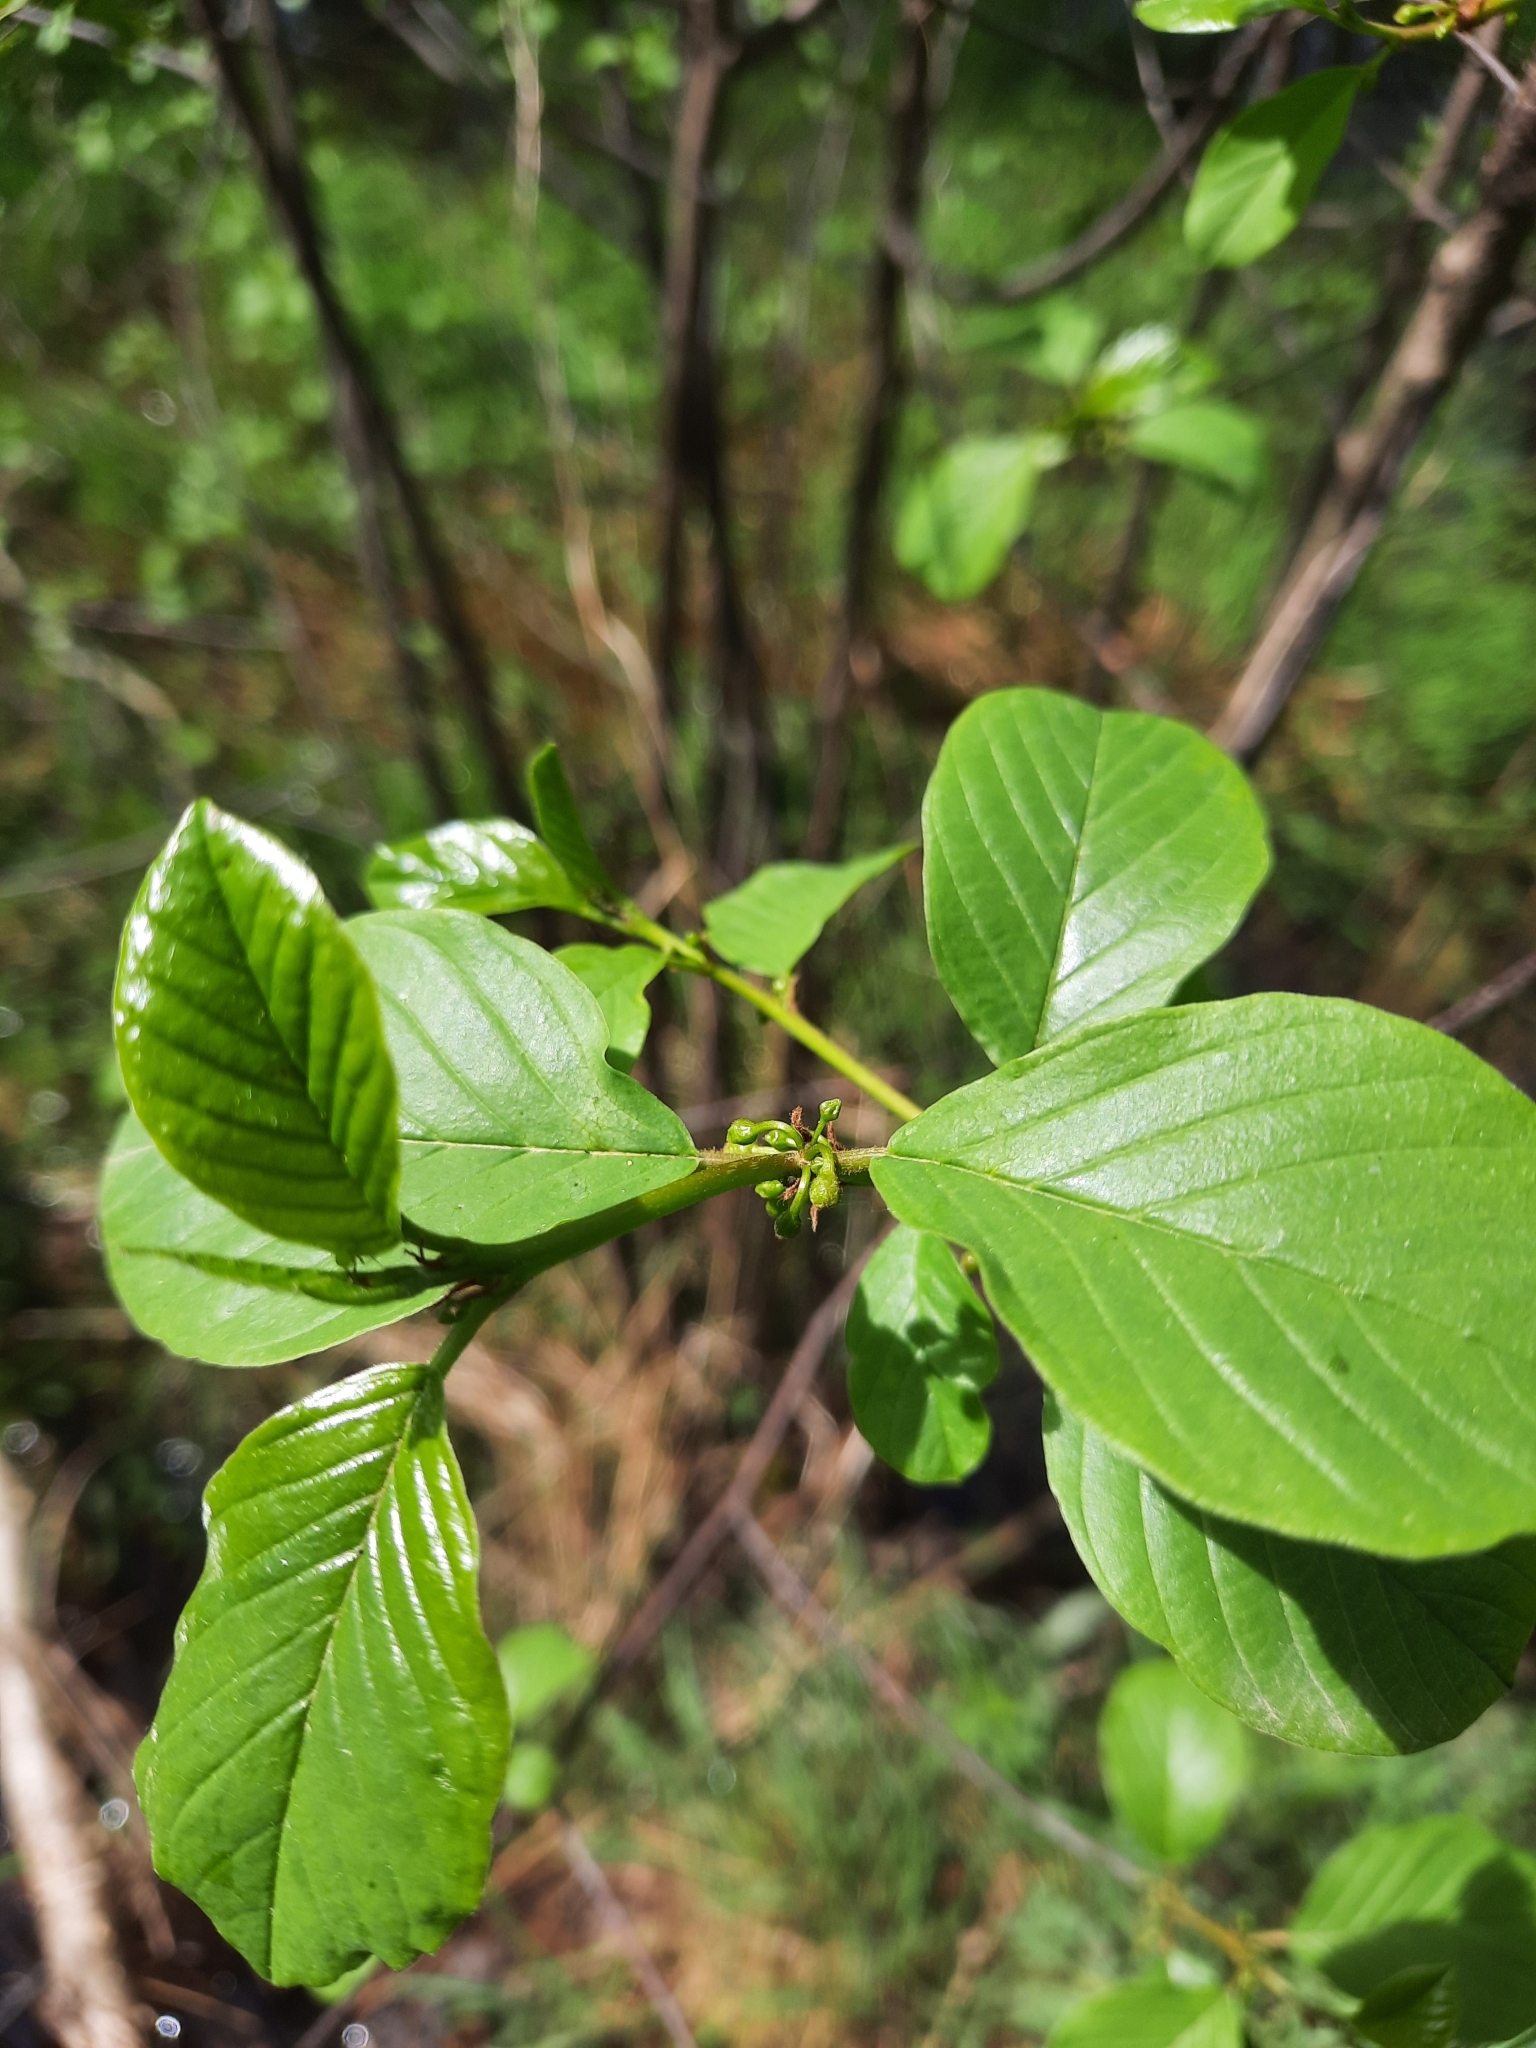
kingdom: Plantae
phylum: Tracheophyta
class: Magnoliopsida
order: Rosales
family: Rhamnaceae
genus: Frangula
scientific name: Frangula alnus
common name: Alder buckthorn
